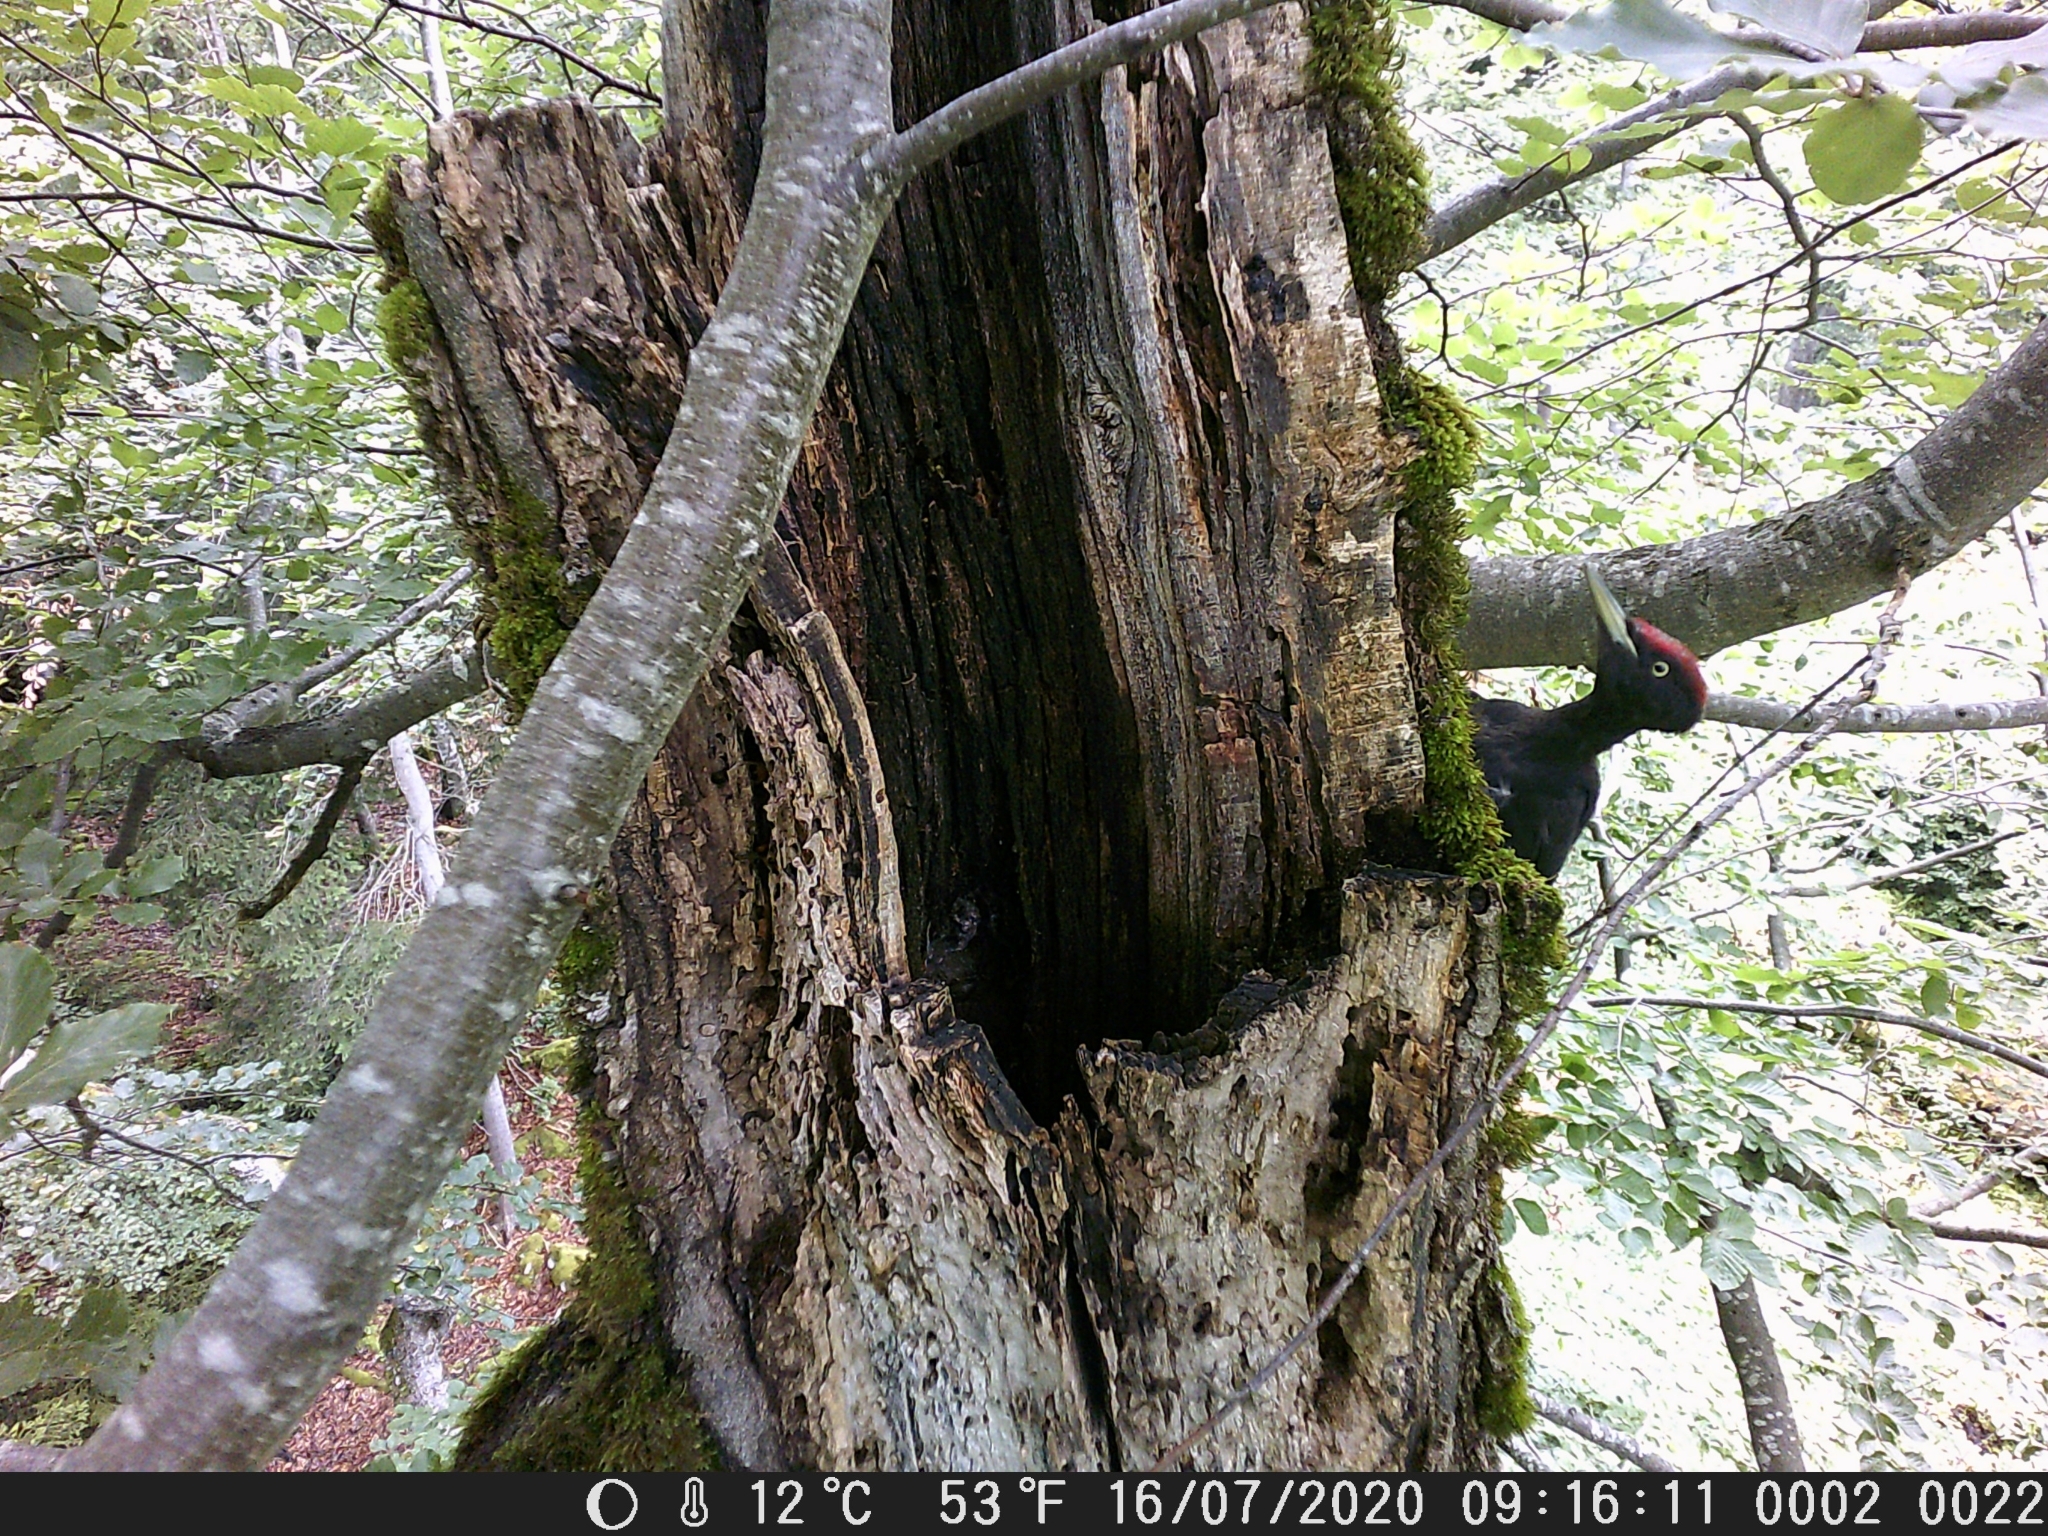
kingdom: Animalia
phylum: Chordata
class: Aves
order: Piciformes
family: Picidae
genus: Dryocopus
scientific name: Dryocopus martius
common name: Black woodpecker
